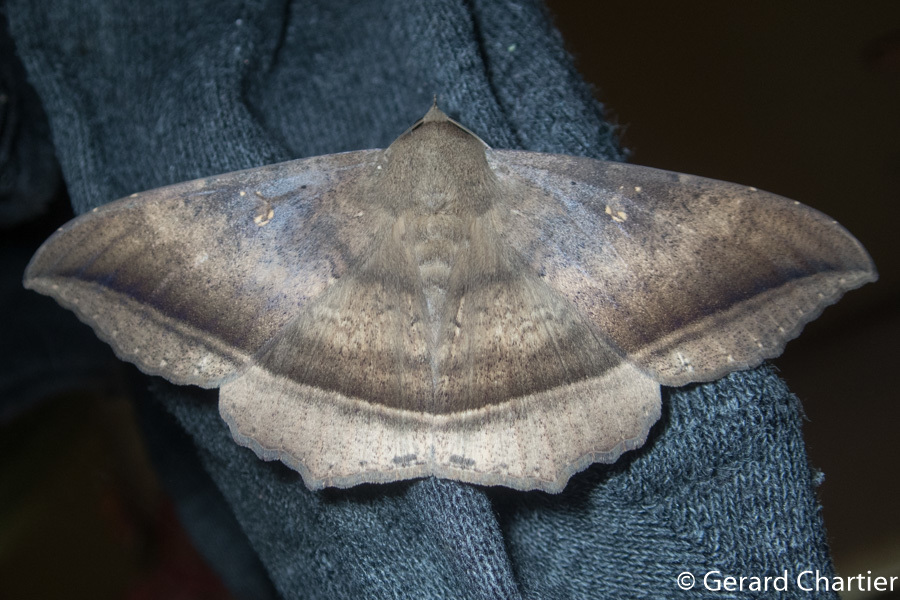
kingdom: Animalia
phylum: Arthropoda
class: Insecta
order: Lepidoptera
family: Erebidae
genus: Hulodes
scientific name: Hulodes caranea
